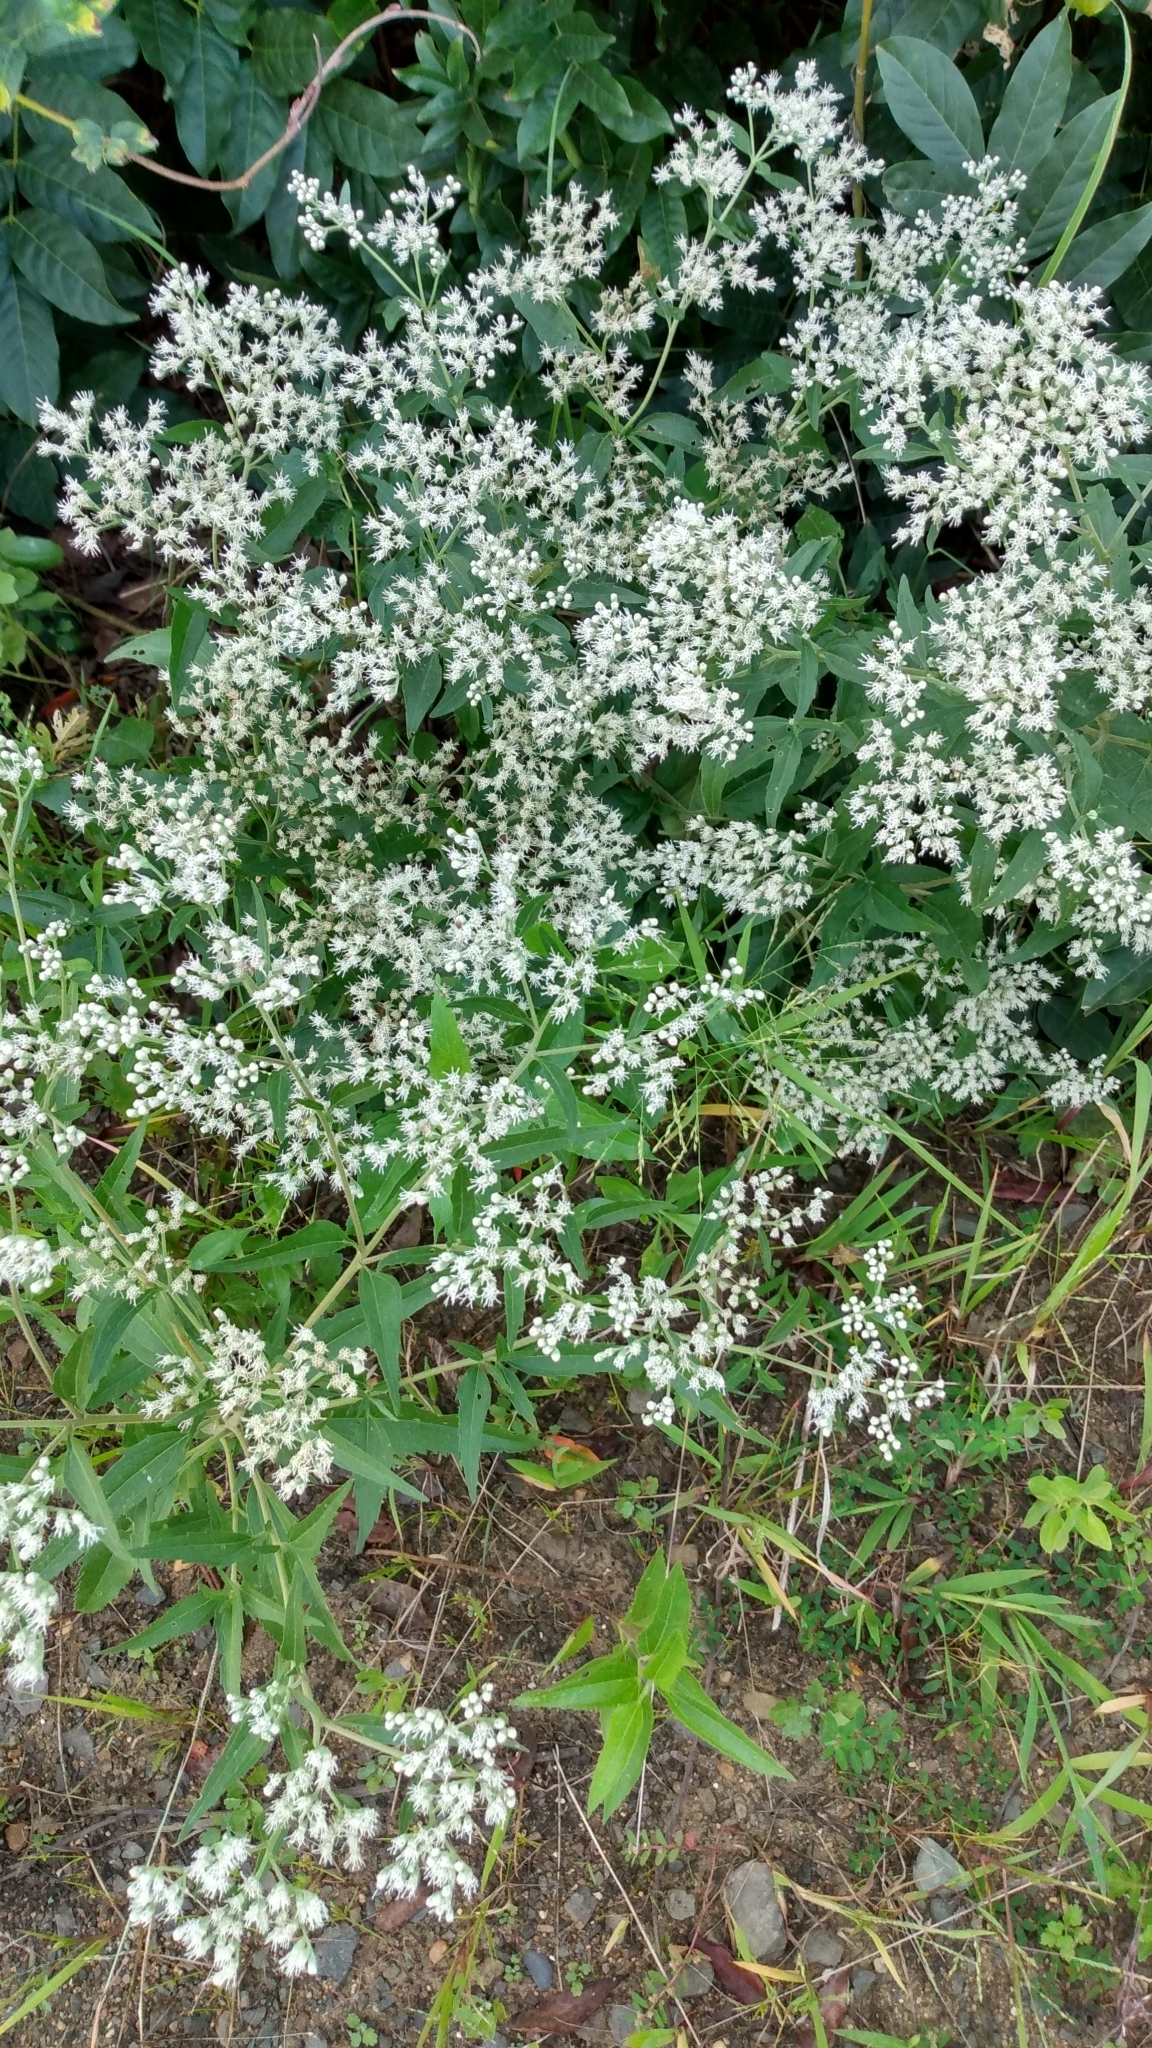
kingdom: Plantae
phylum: Tracheophyta
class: Magnoliopsida
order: Asterales
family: Asteraceae
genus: Eupatorium
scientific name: Eupatorium serotinum
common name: Late boneset
